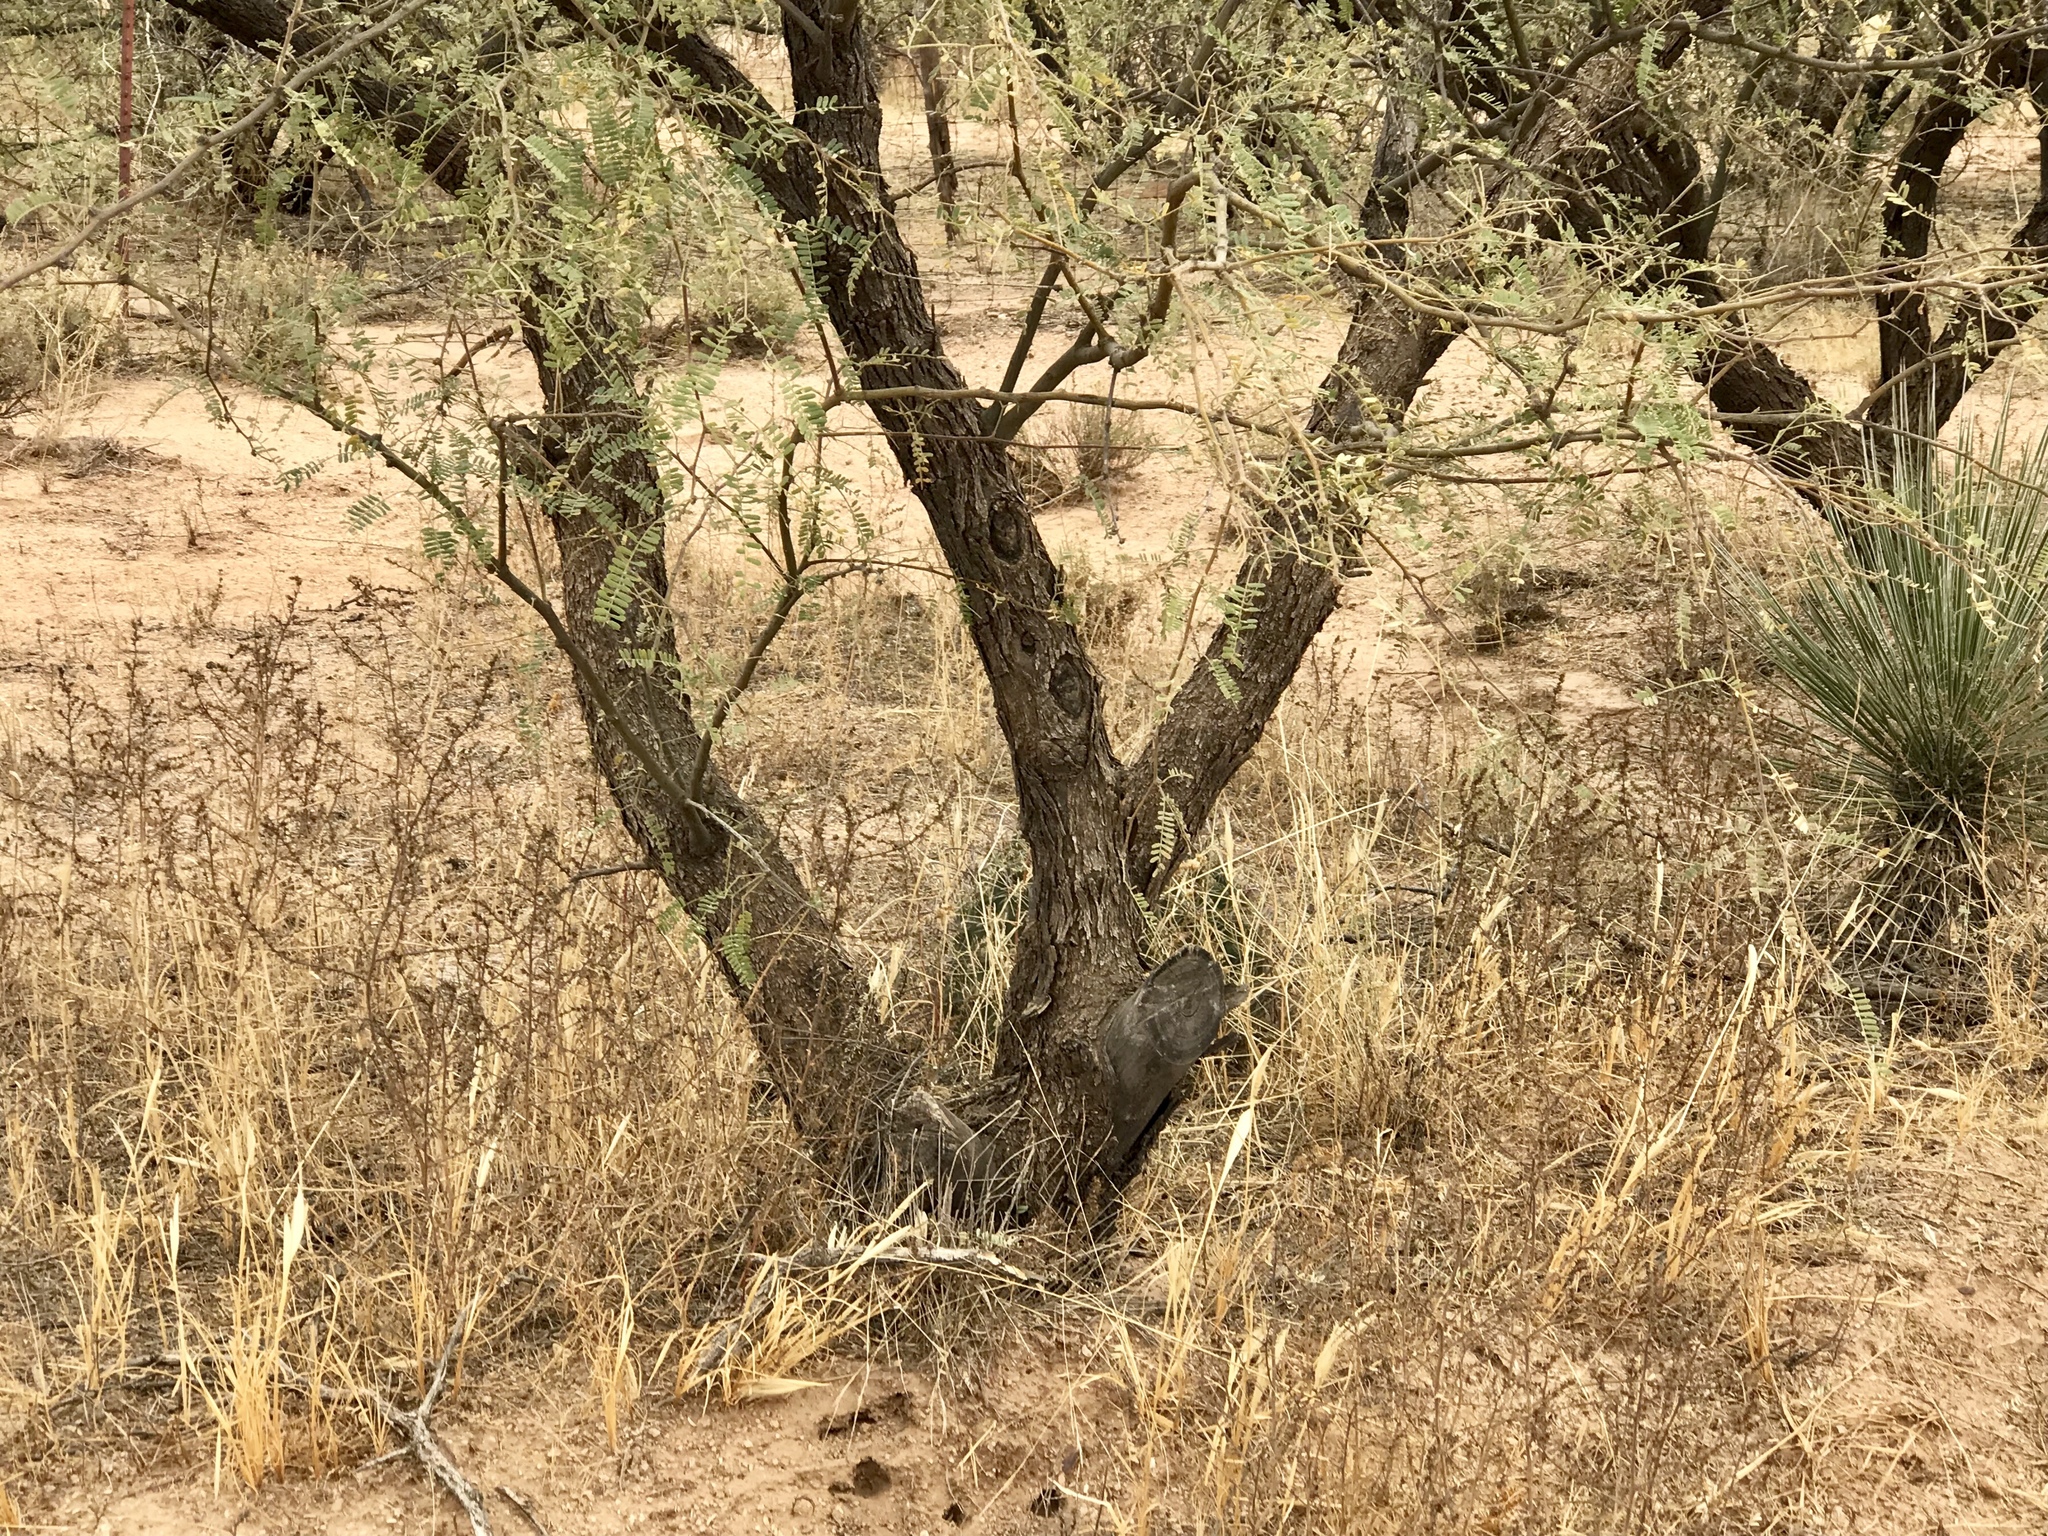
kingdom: Plantae
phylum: Tracheophyta
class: Magnoliopsida
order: Fabales
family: Fabaceae
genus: Prosopis
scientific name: Prosopis velutina
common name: Velvet mesquite
